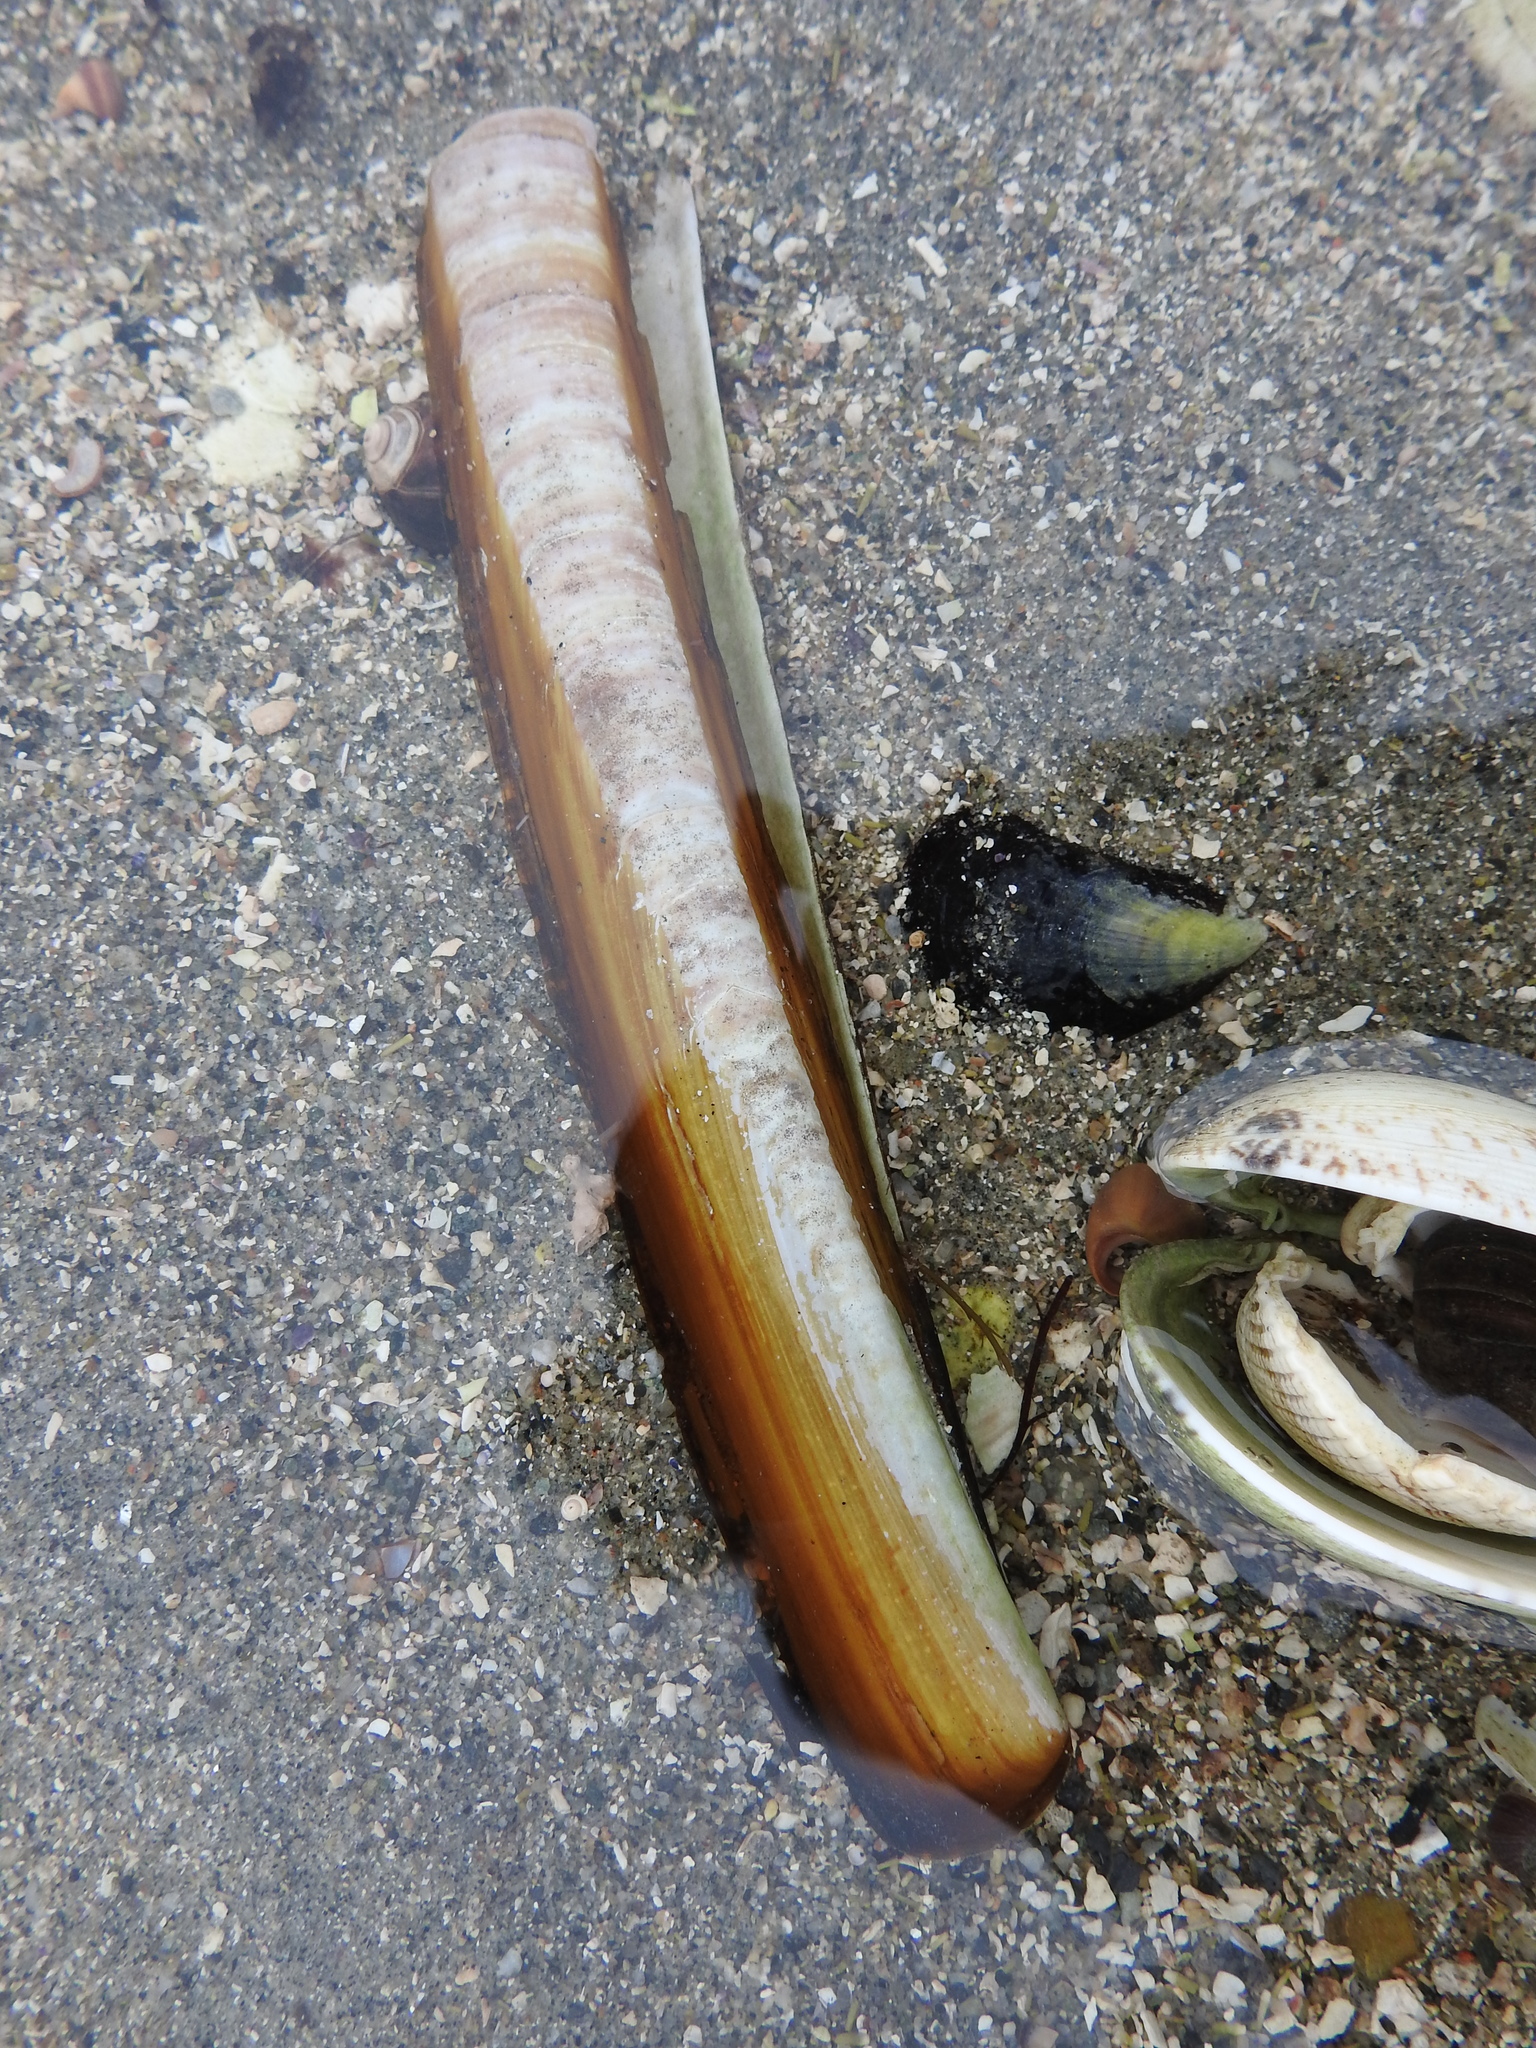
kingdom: Animalia
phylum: Mollusca
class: Bivalvia
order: Adapedonta
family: Pharidae
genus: Ensis
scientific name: Ensis magnus
